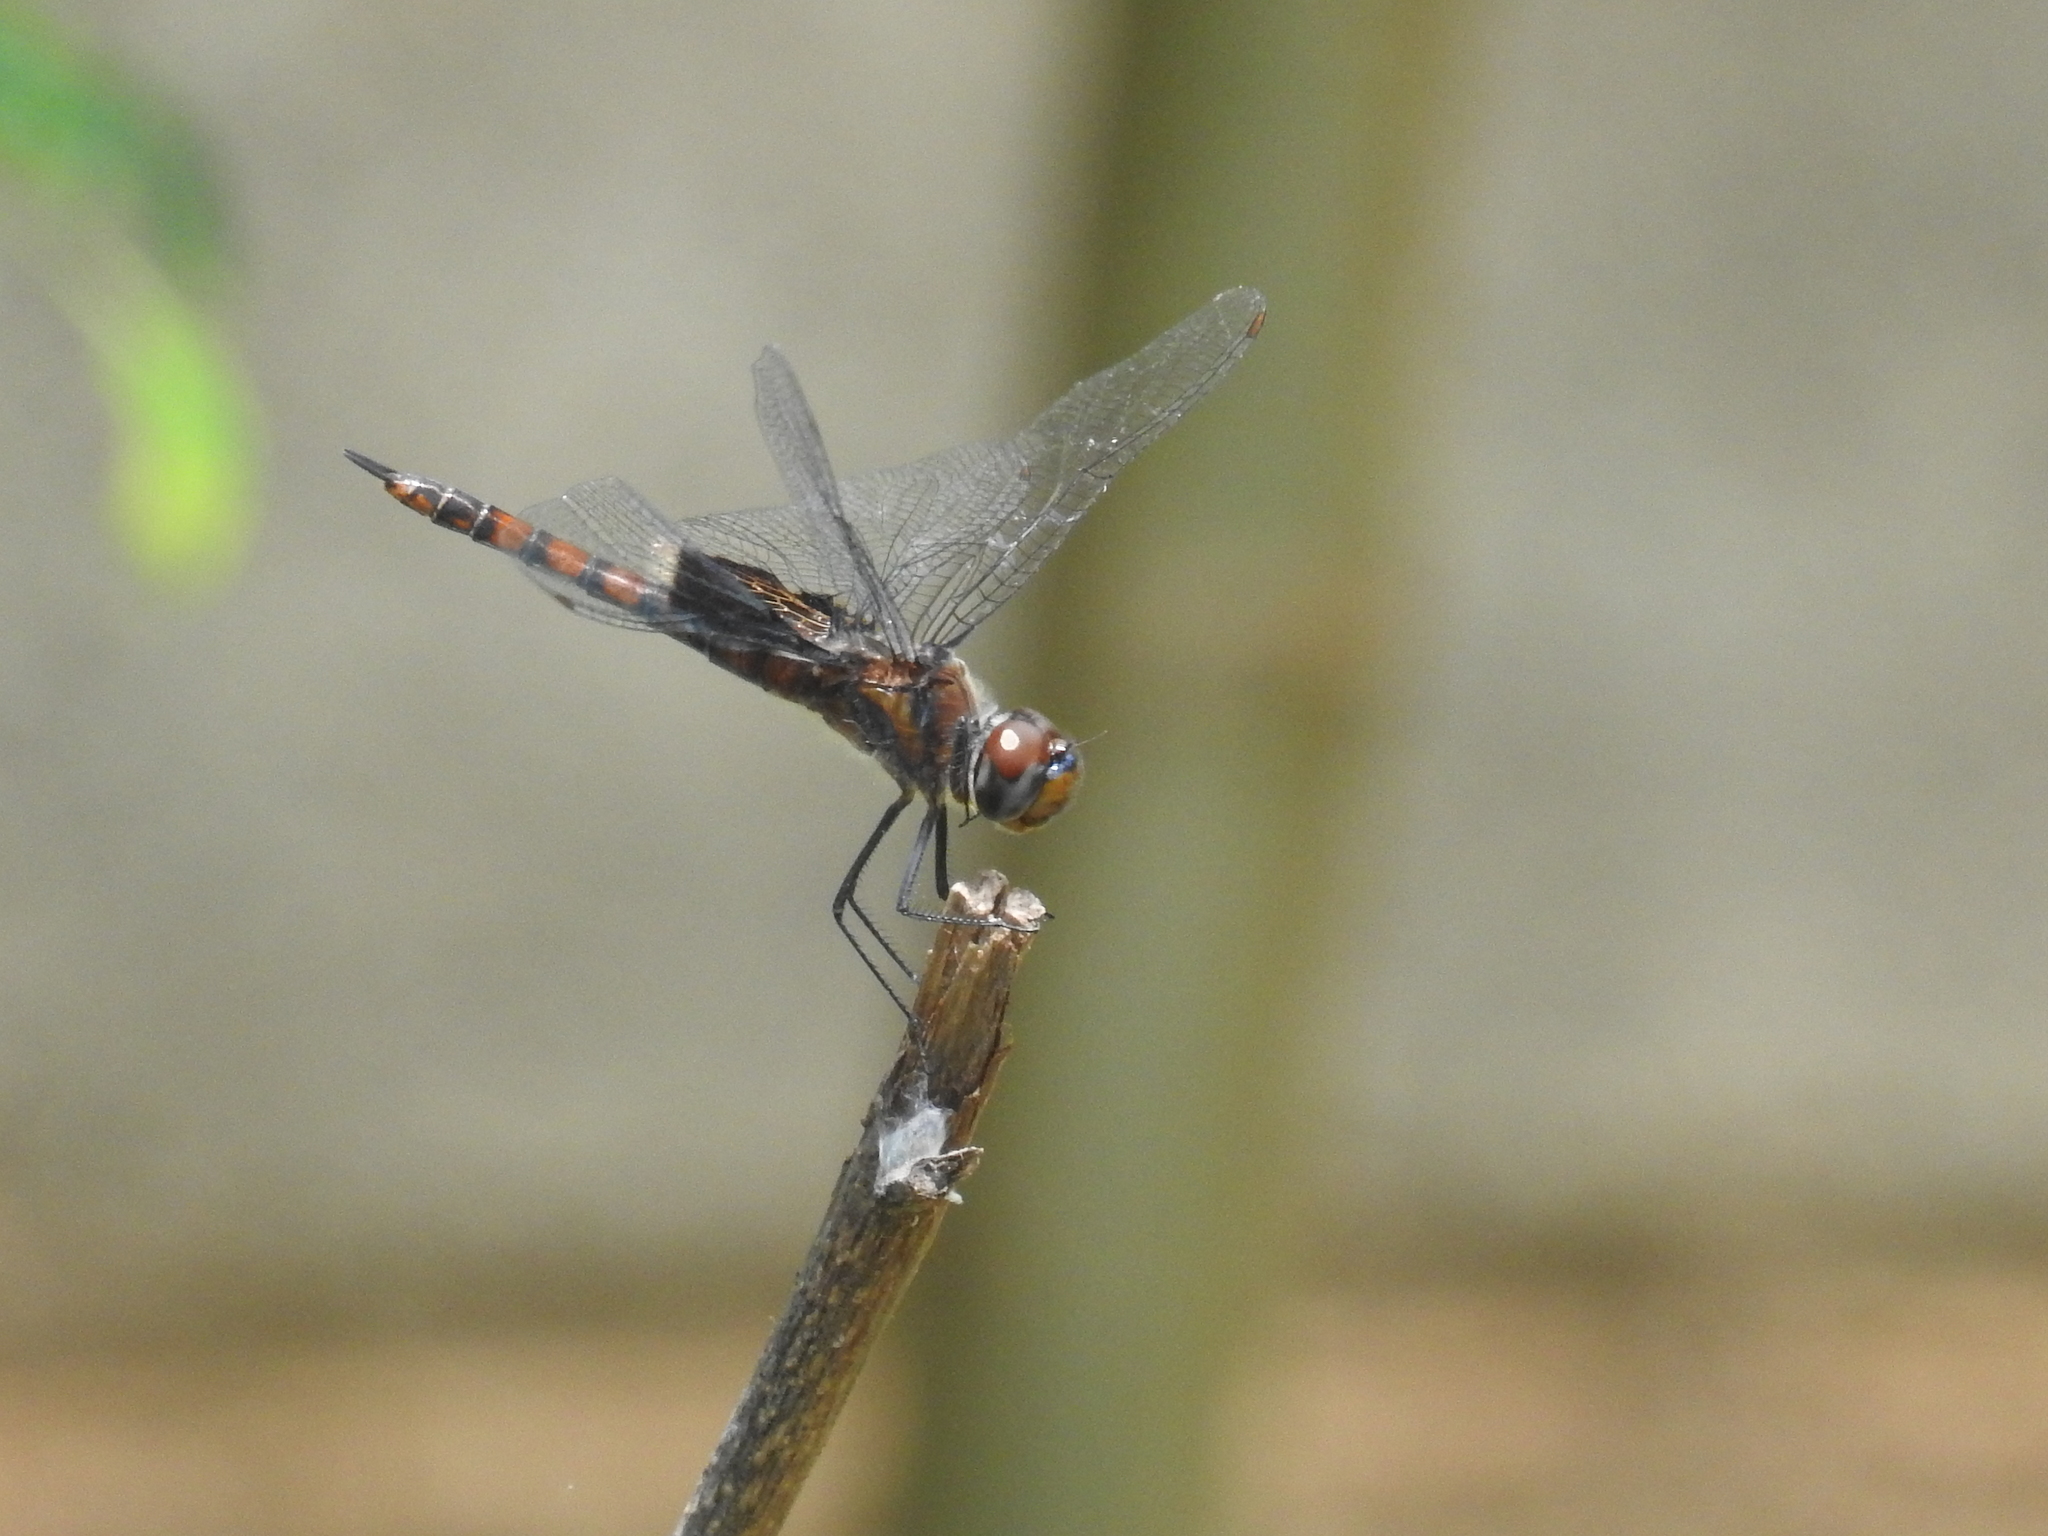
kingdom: Animalia
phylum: Arthropoda
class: Insecta
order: Odonata
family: Libellulidae
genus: Tramea
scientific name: Tramea limbata
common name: Ferruginous glider
